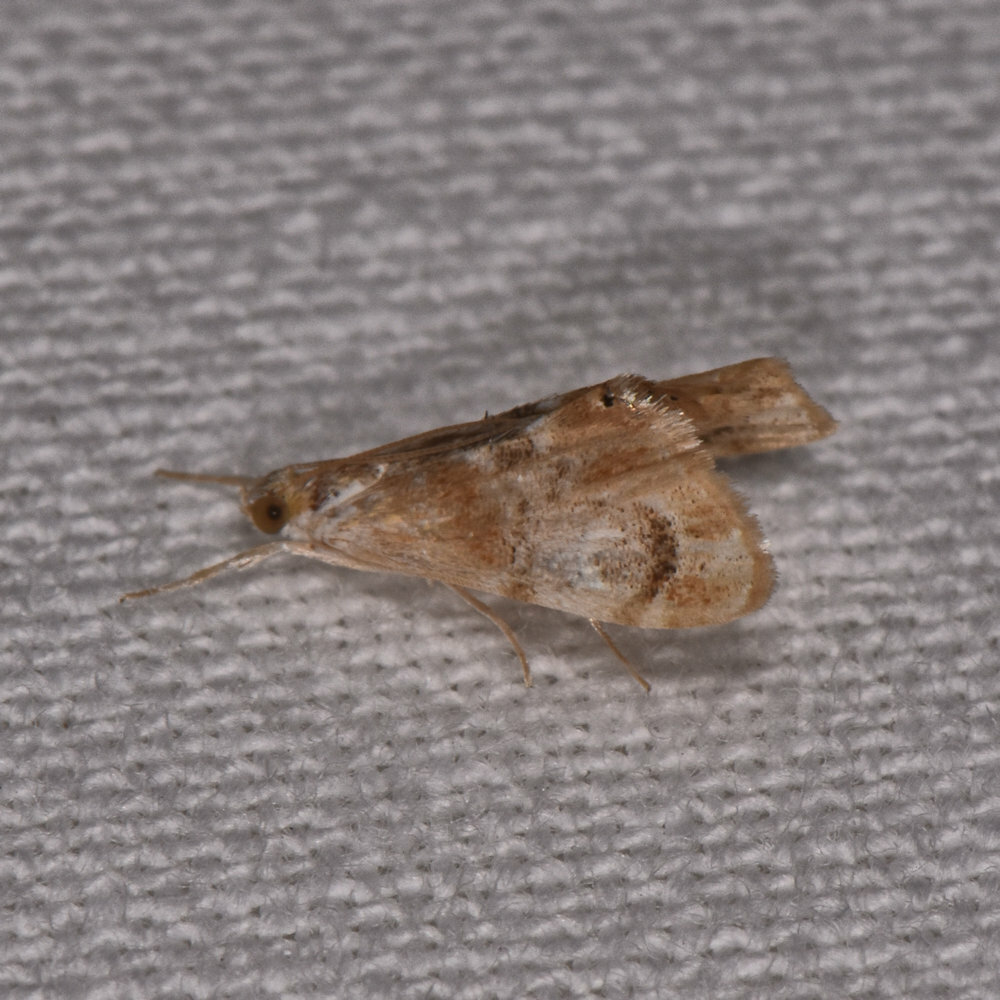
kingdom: Animalia
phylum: Arthropoda
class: Insecta
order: Lepidoptera
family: Crambidae
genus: Dicymolomia
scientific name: Dicymolomia julianalis
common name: Julia's dicymolomia moth
